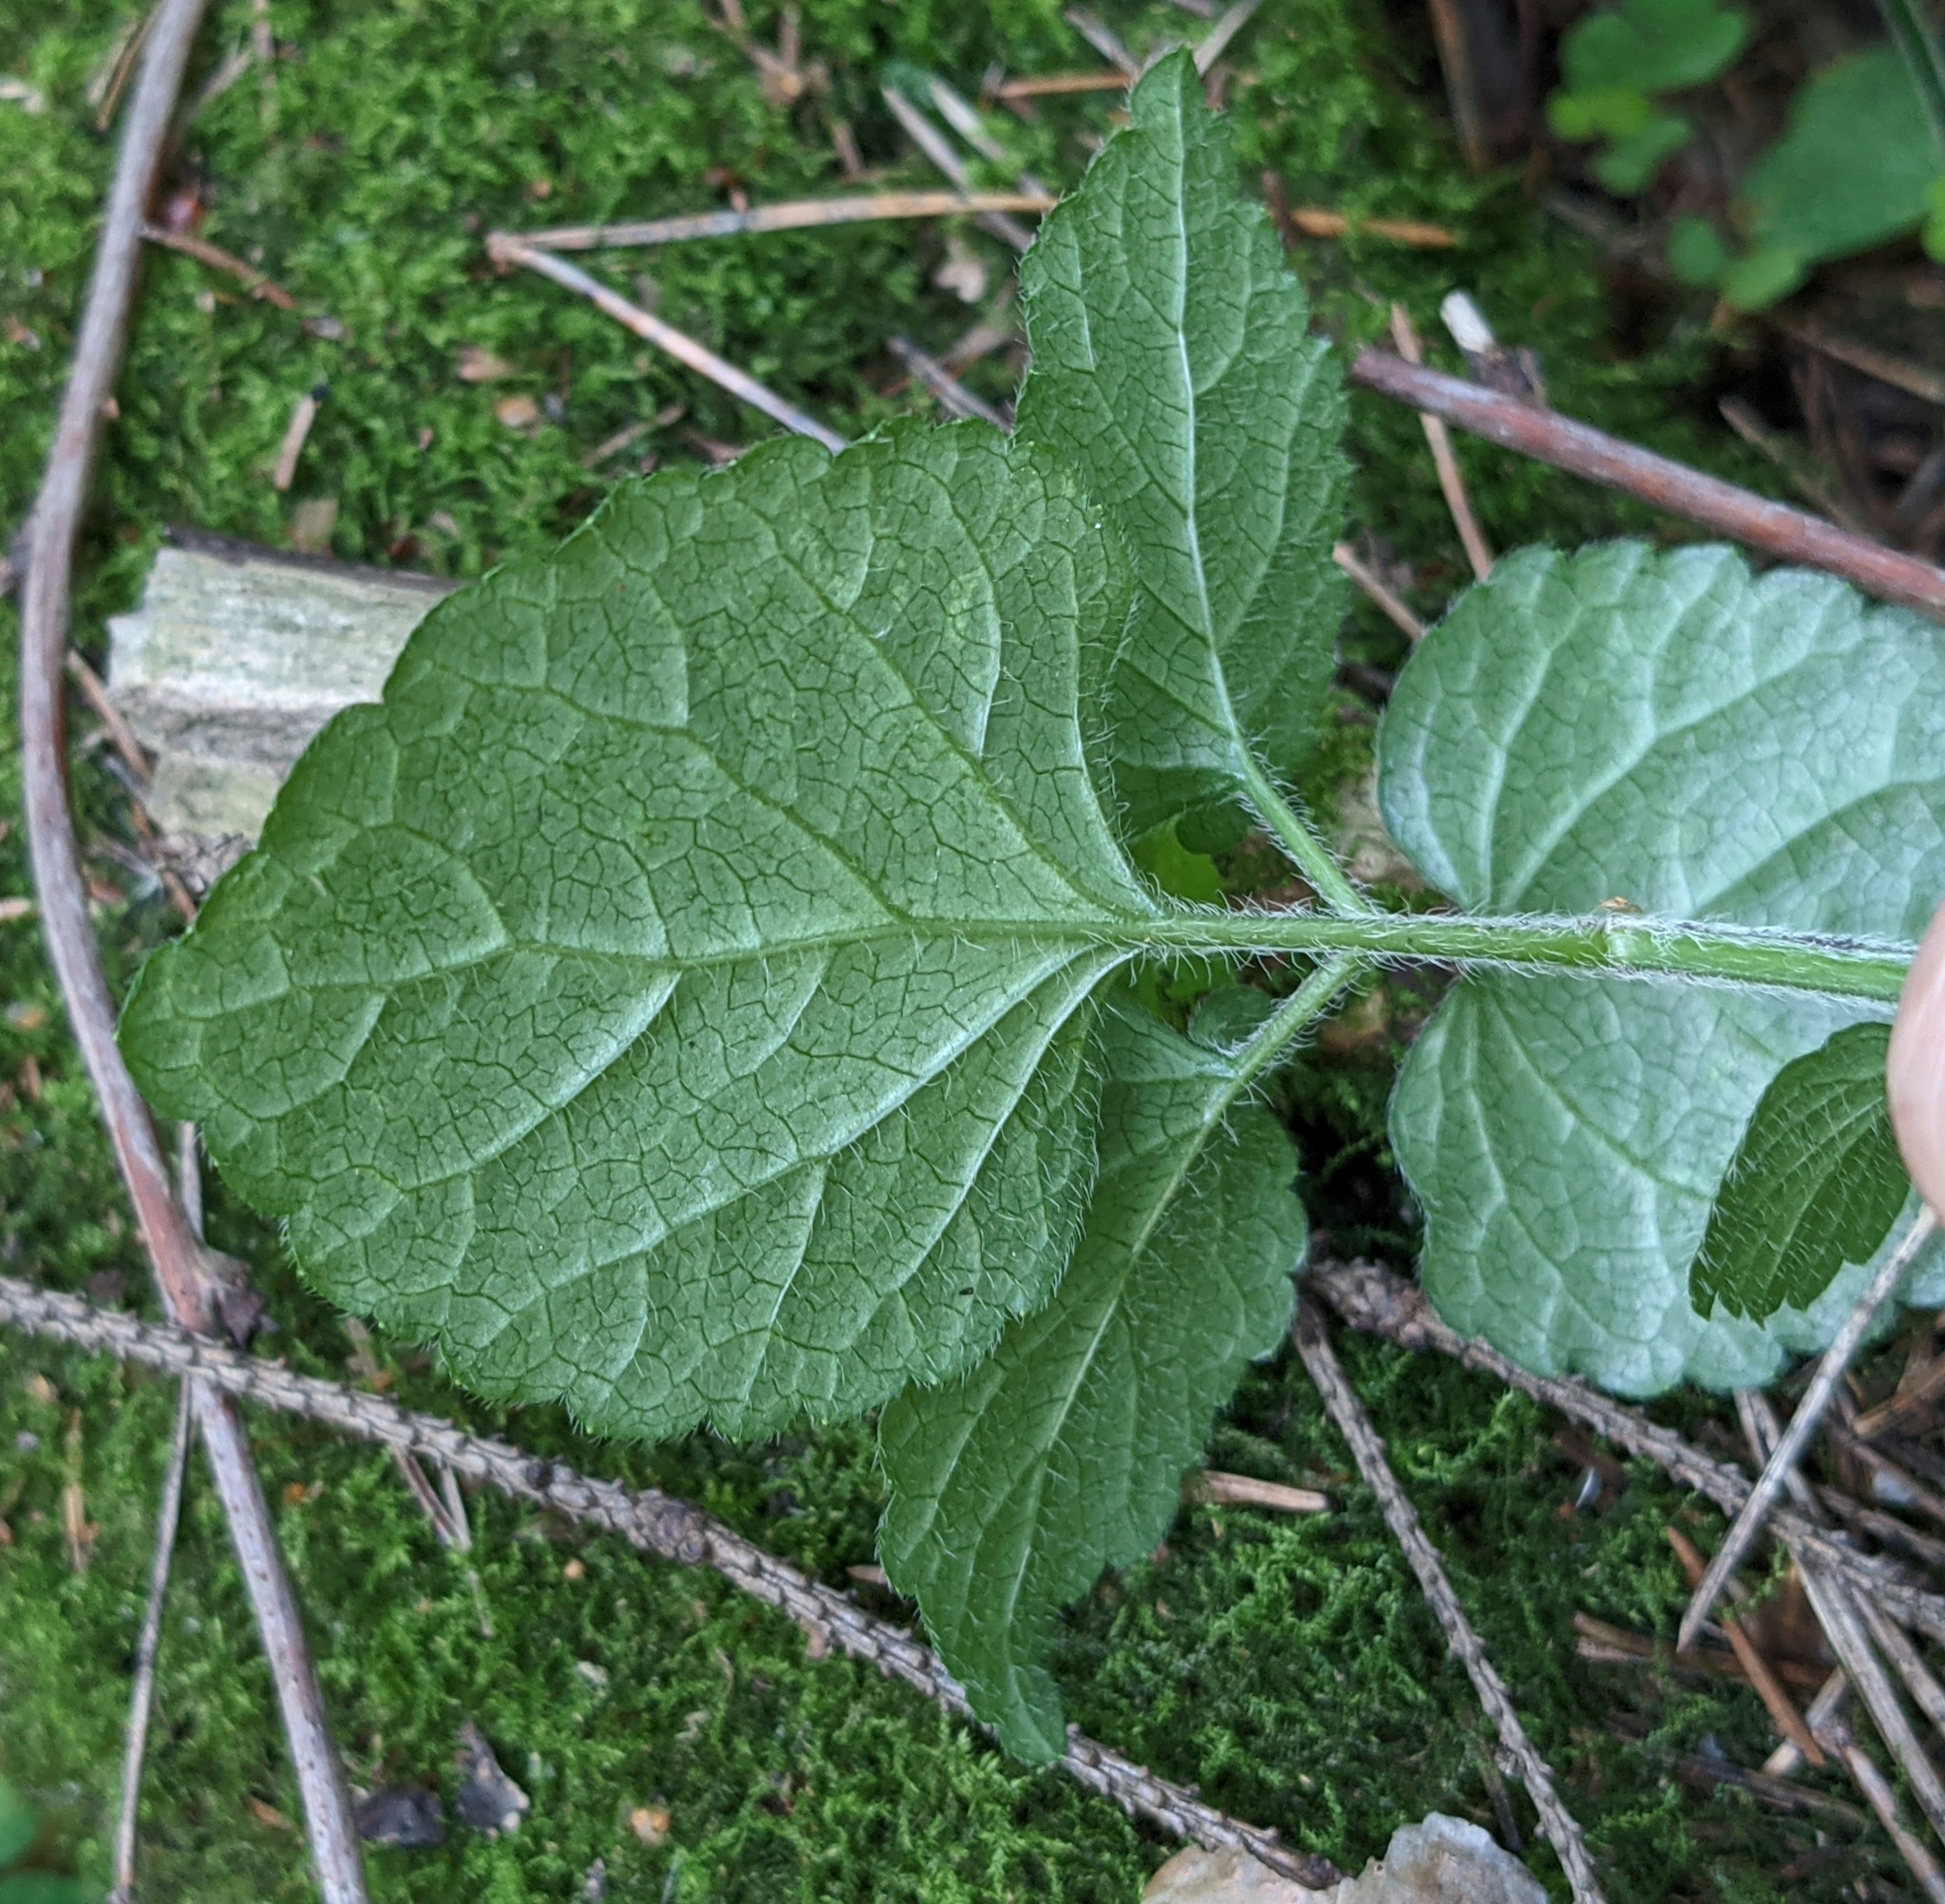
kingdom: Plantae
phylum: Tracheophyta
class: Magnoliopsida
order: Lamiales
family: Lamiaceae
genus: Lamium
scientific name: Lamium galeobdolon
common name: Yellow archangel
